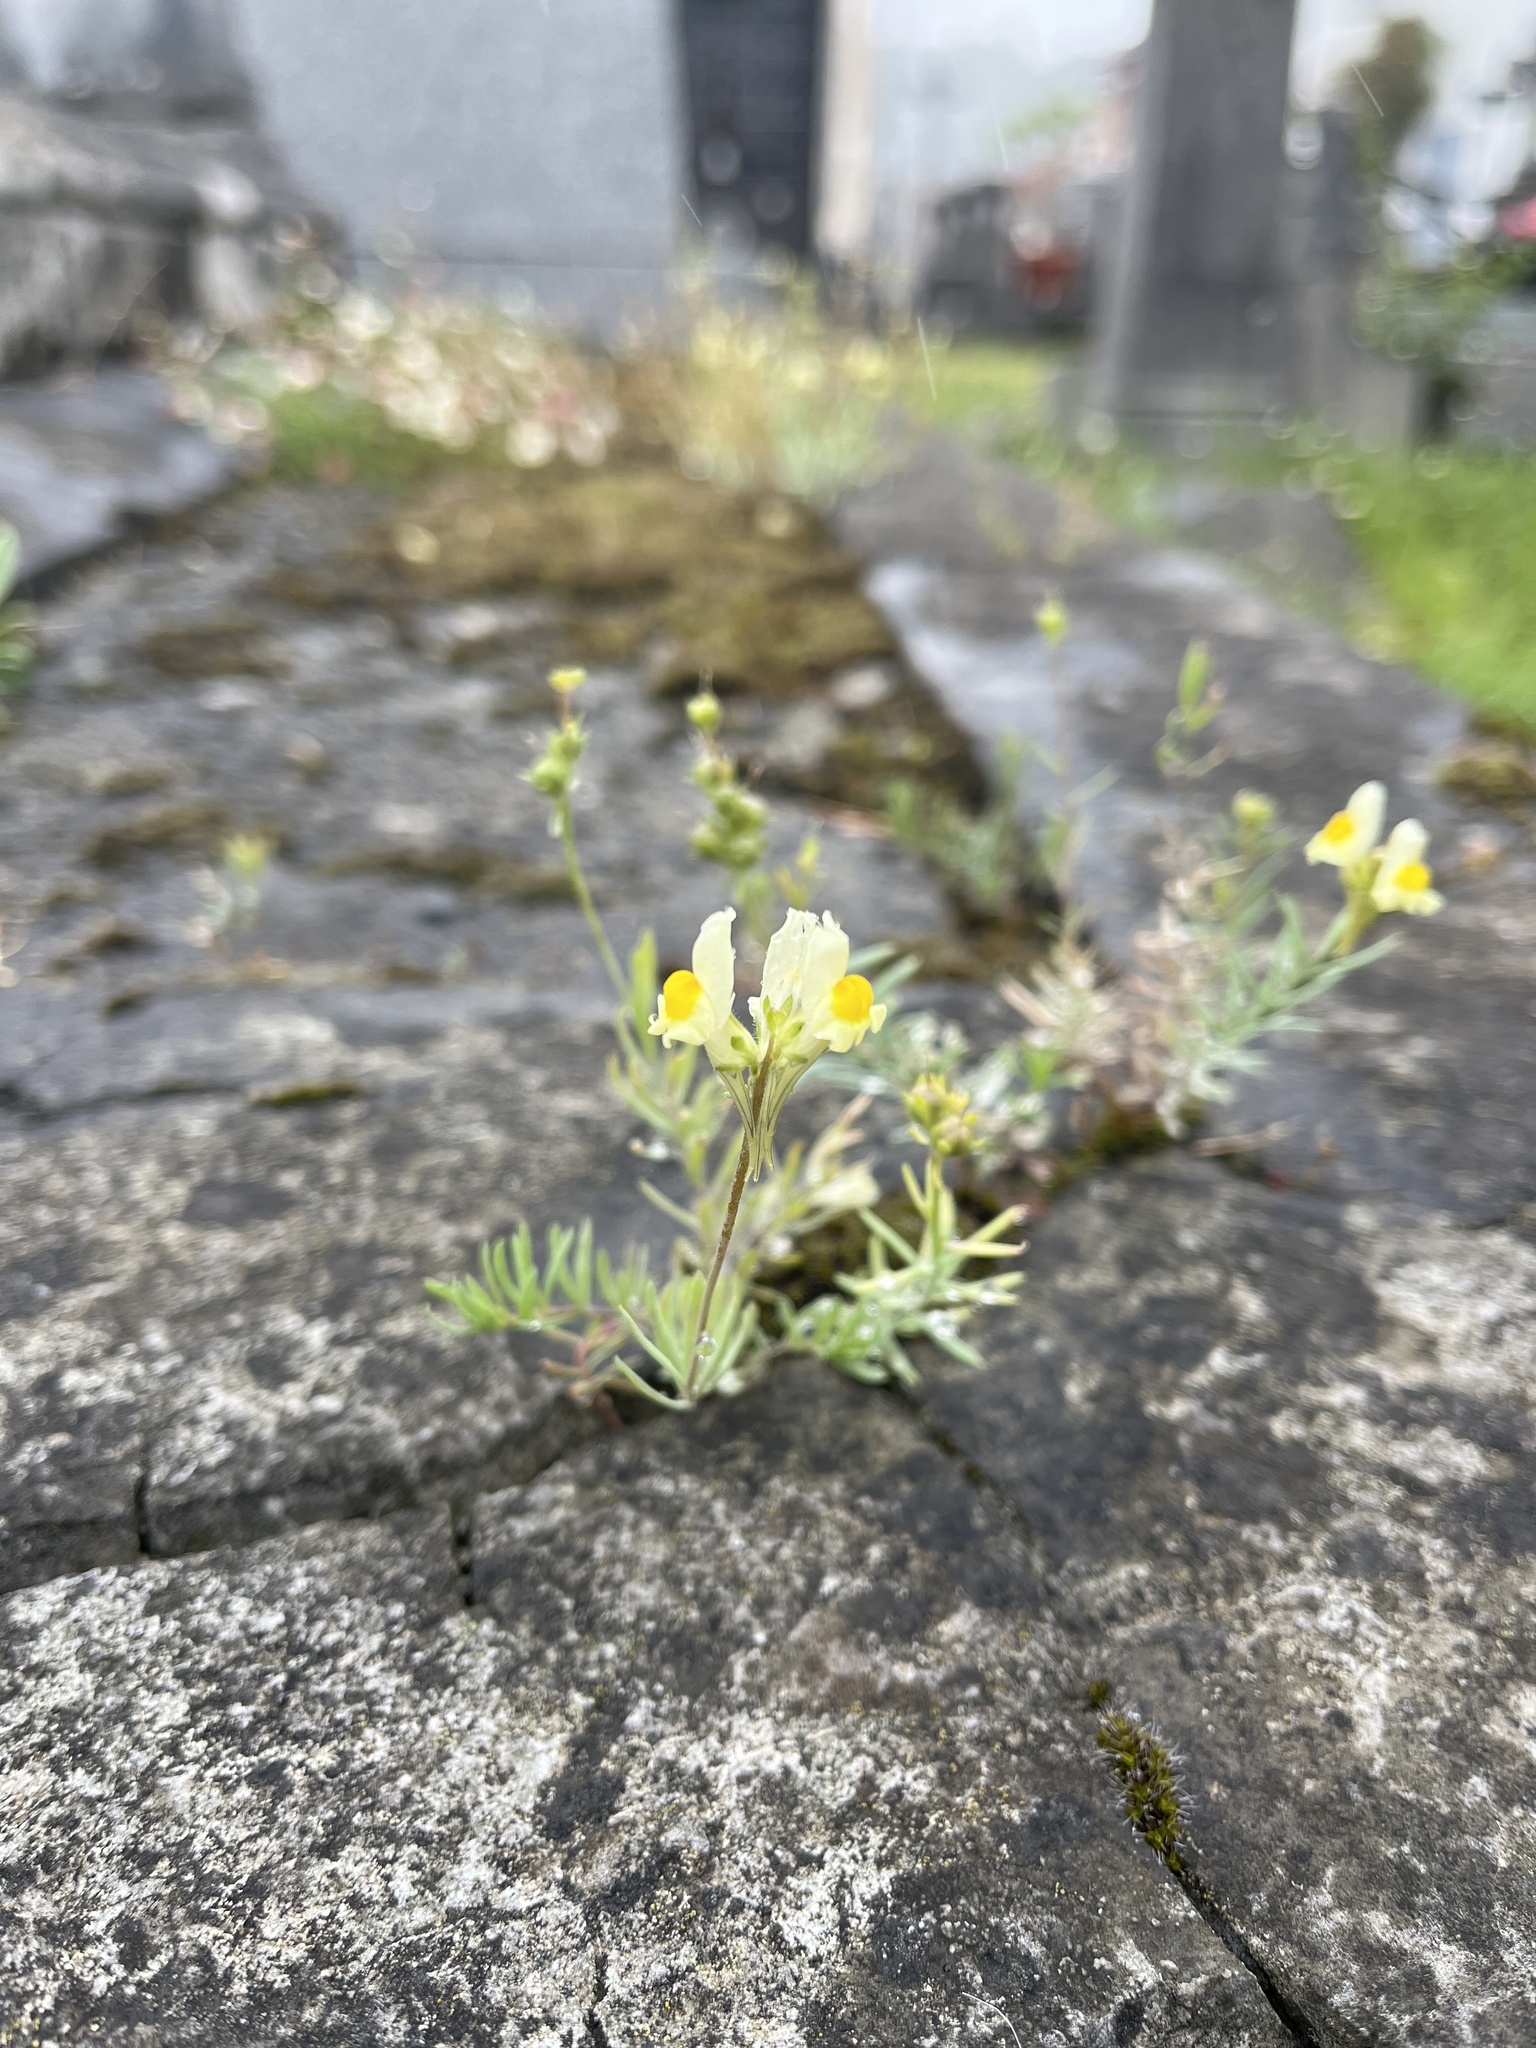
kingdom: Plantae
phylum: Tracheophyta
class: Magnoliopsida
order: Lamiales
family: Plantaginaceae
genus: Linaria
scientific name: Linaria supina
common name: Prostrate toadflax
